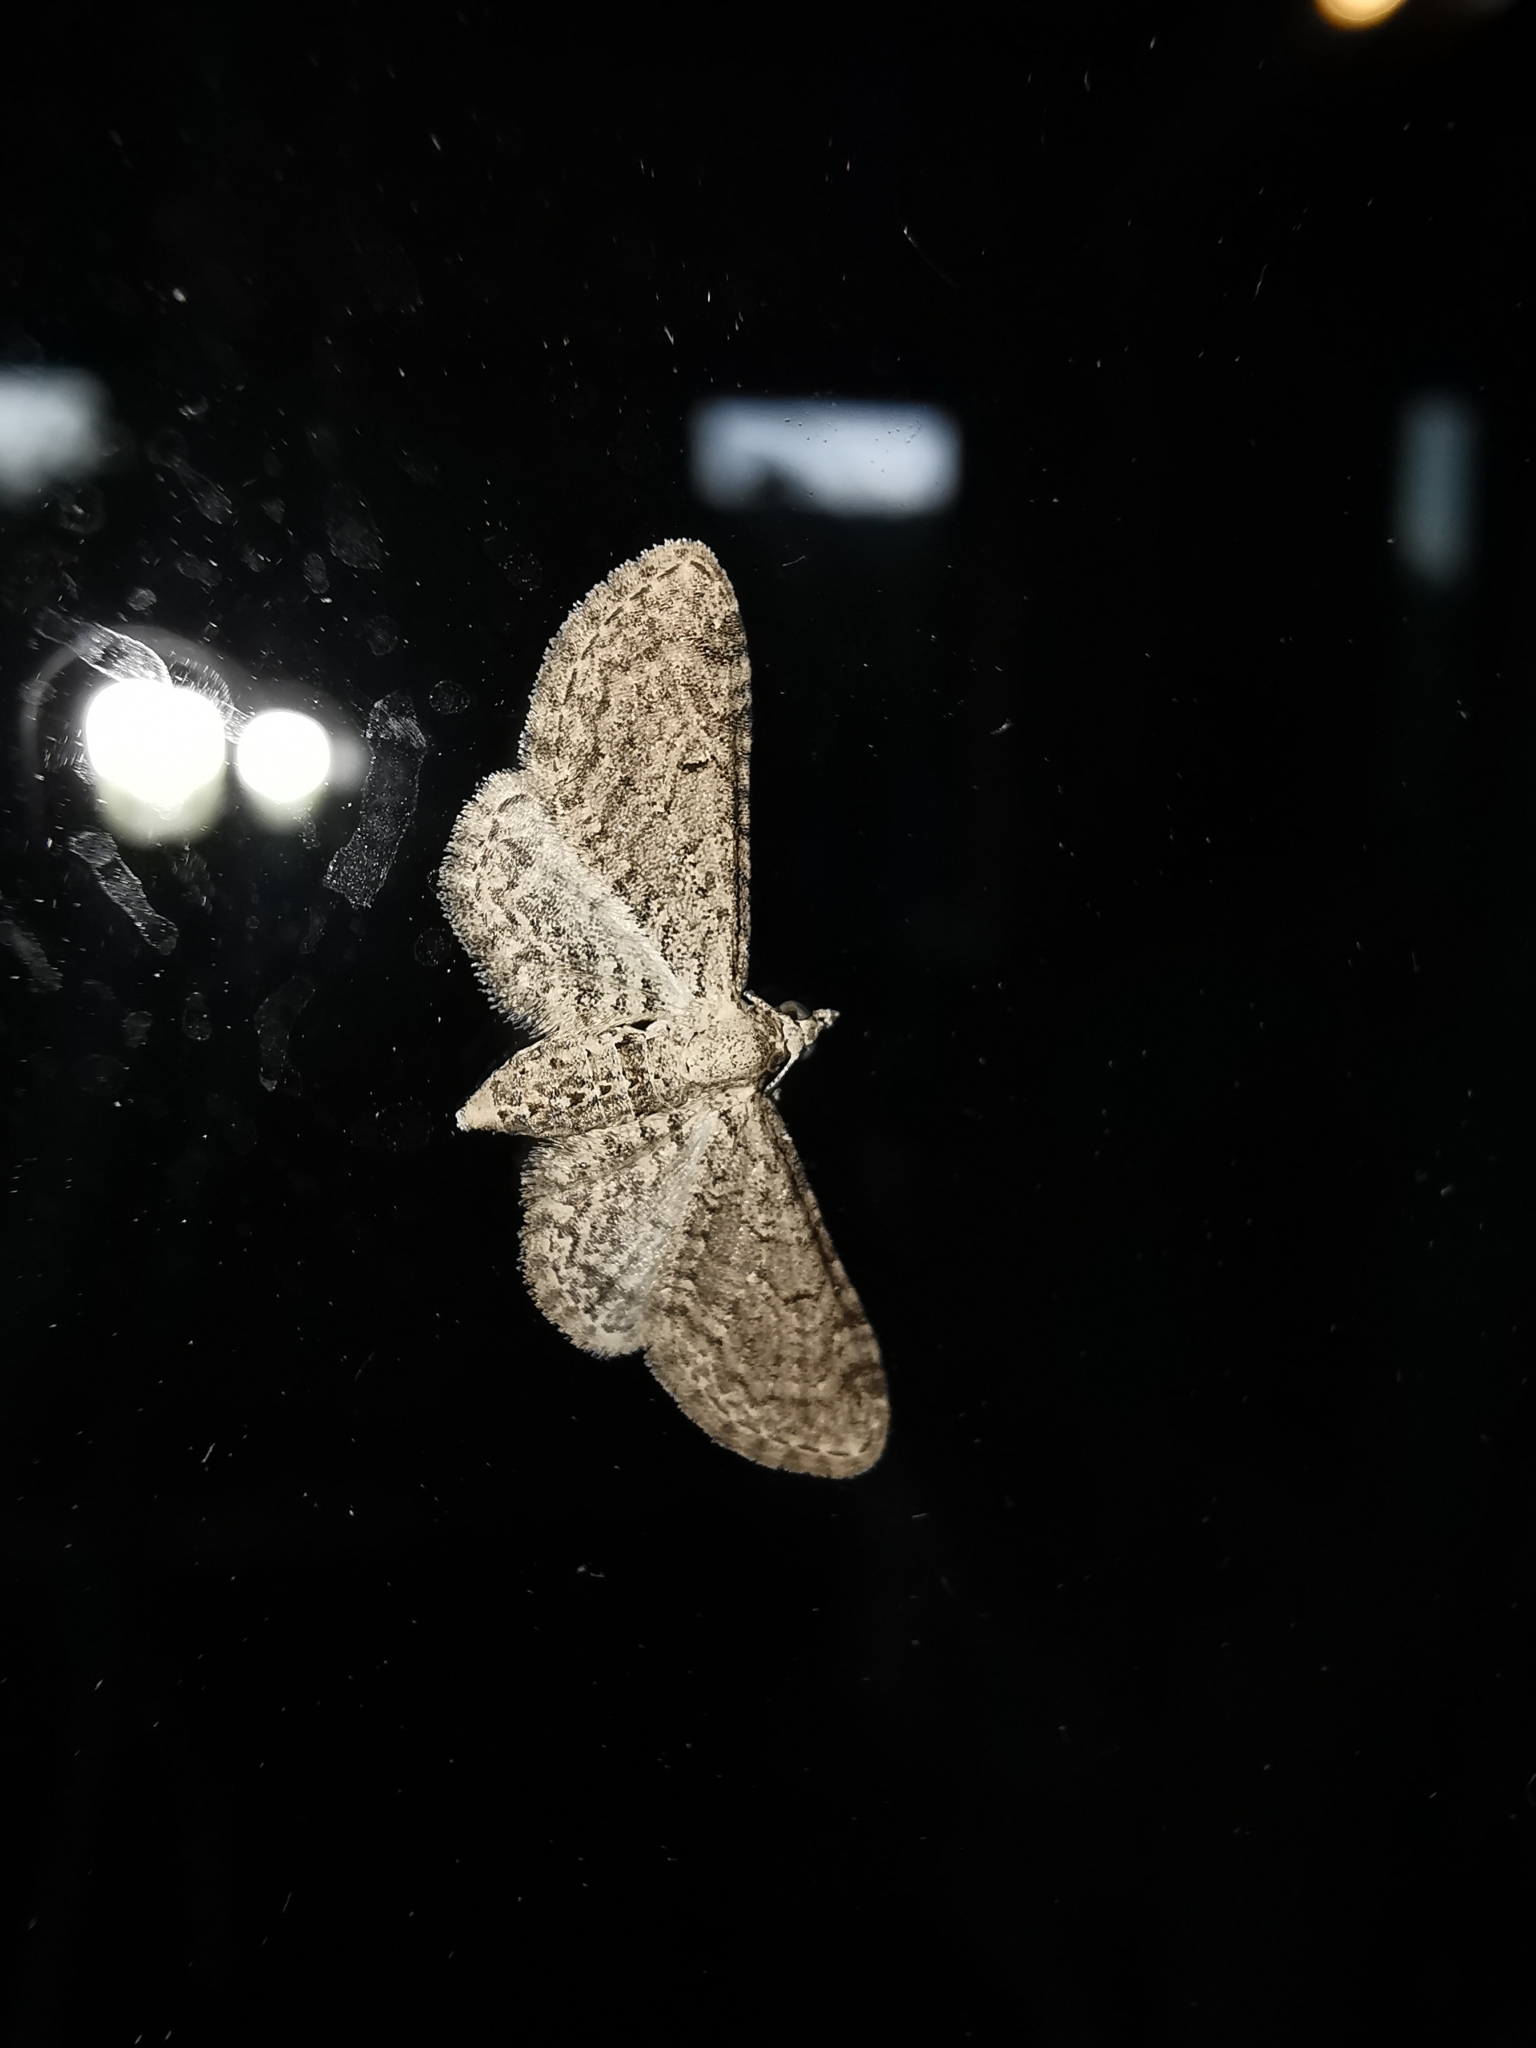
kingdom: Animalia
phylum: Arthropoda
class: Insecta
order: Lepidoptera
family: Geometridae
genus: Eupithecia
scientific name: Eupithecia ultimaria
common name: Channel islands pug
